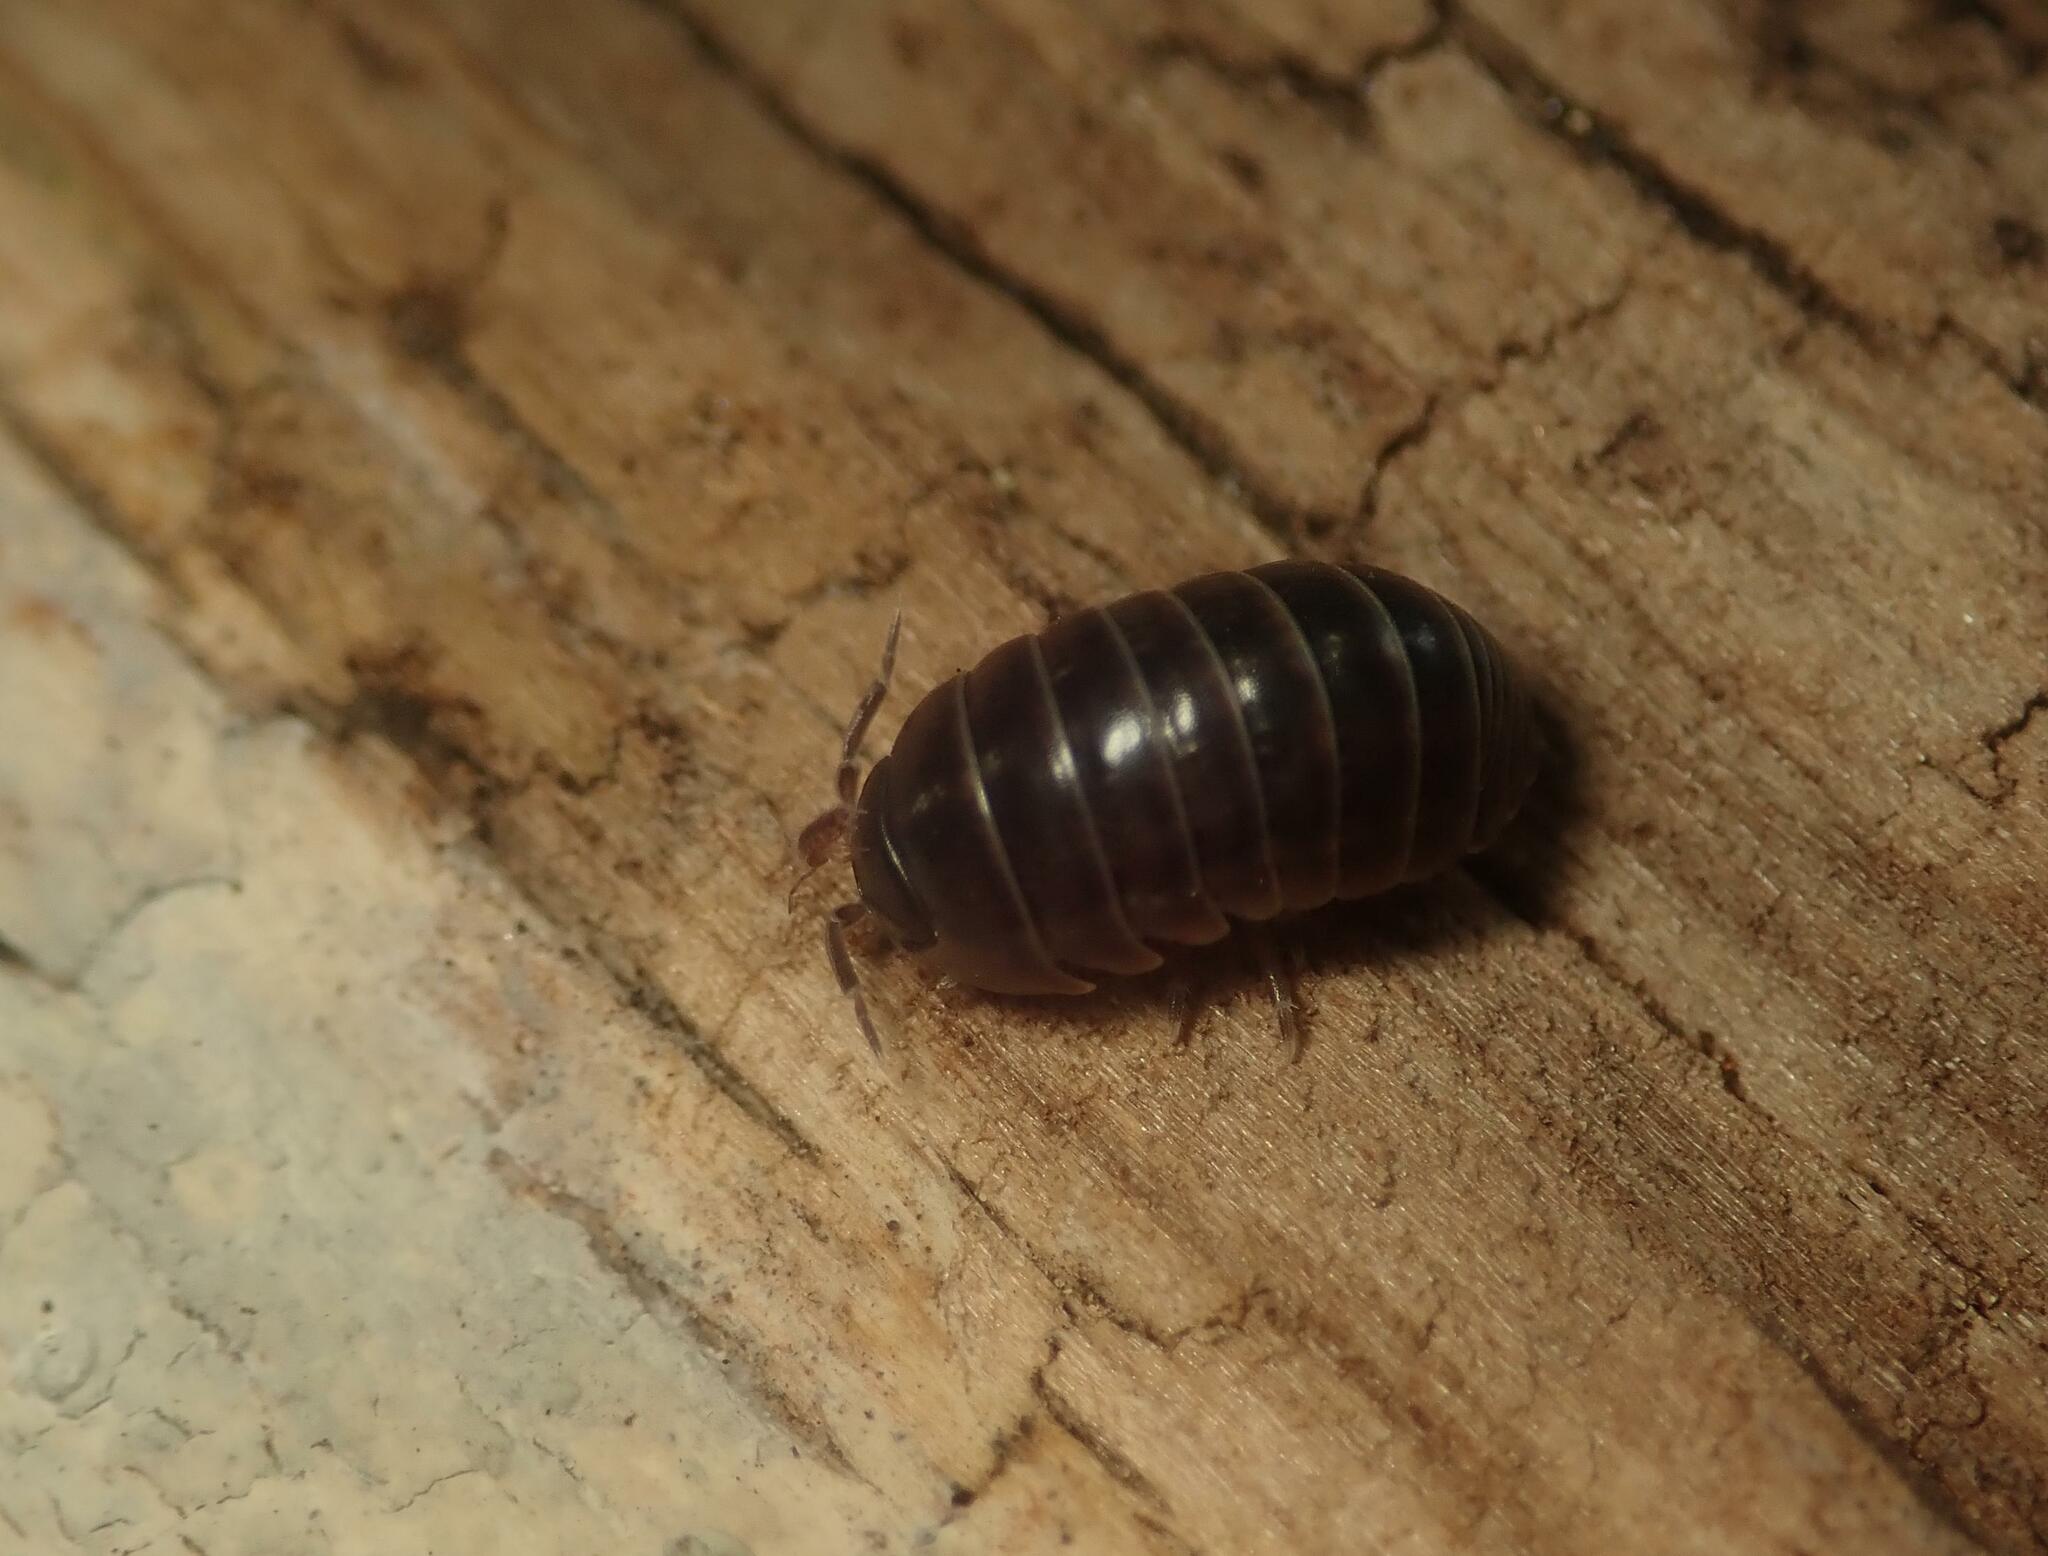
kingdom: Animalia
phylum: Arthropoda
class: Malacostraca
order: Isopoda
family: Armadillidiidae
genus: Armadillidium
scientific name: Armadillidium vulgare
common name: Common pill woodlouse
